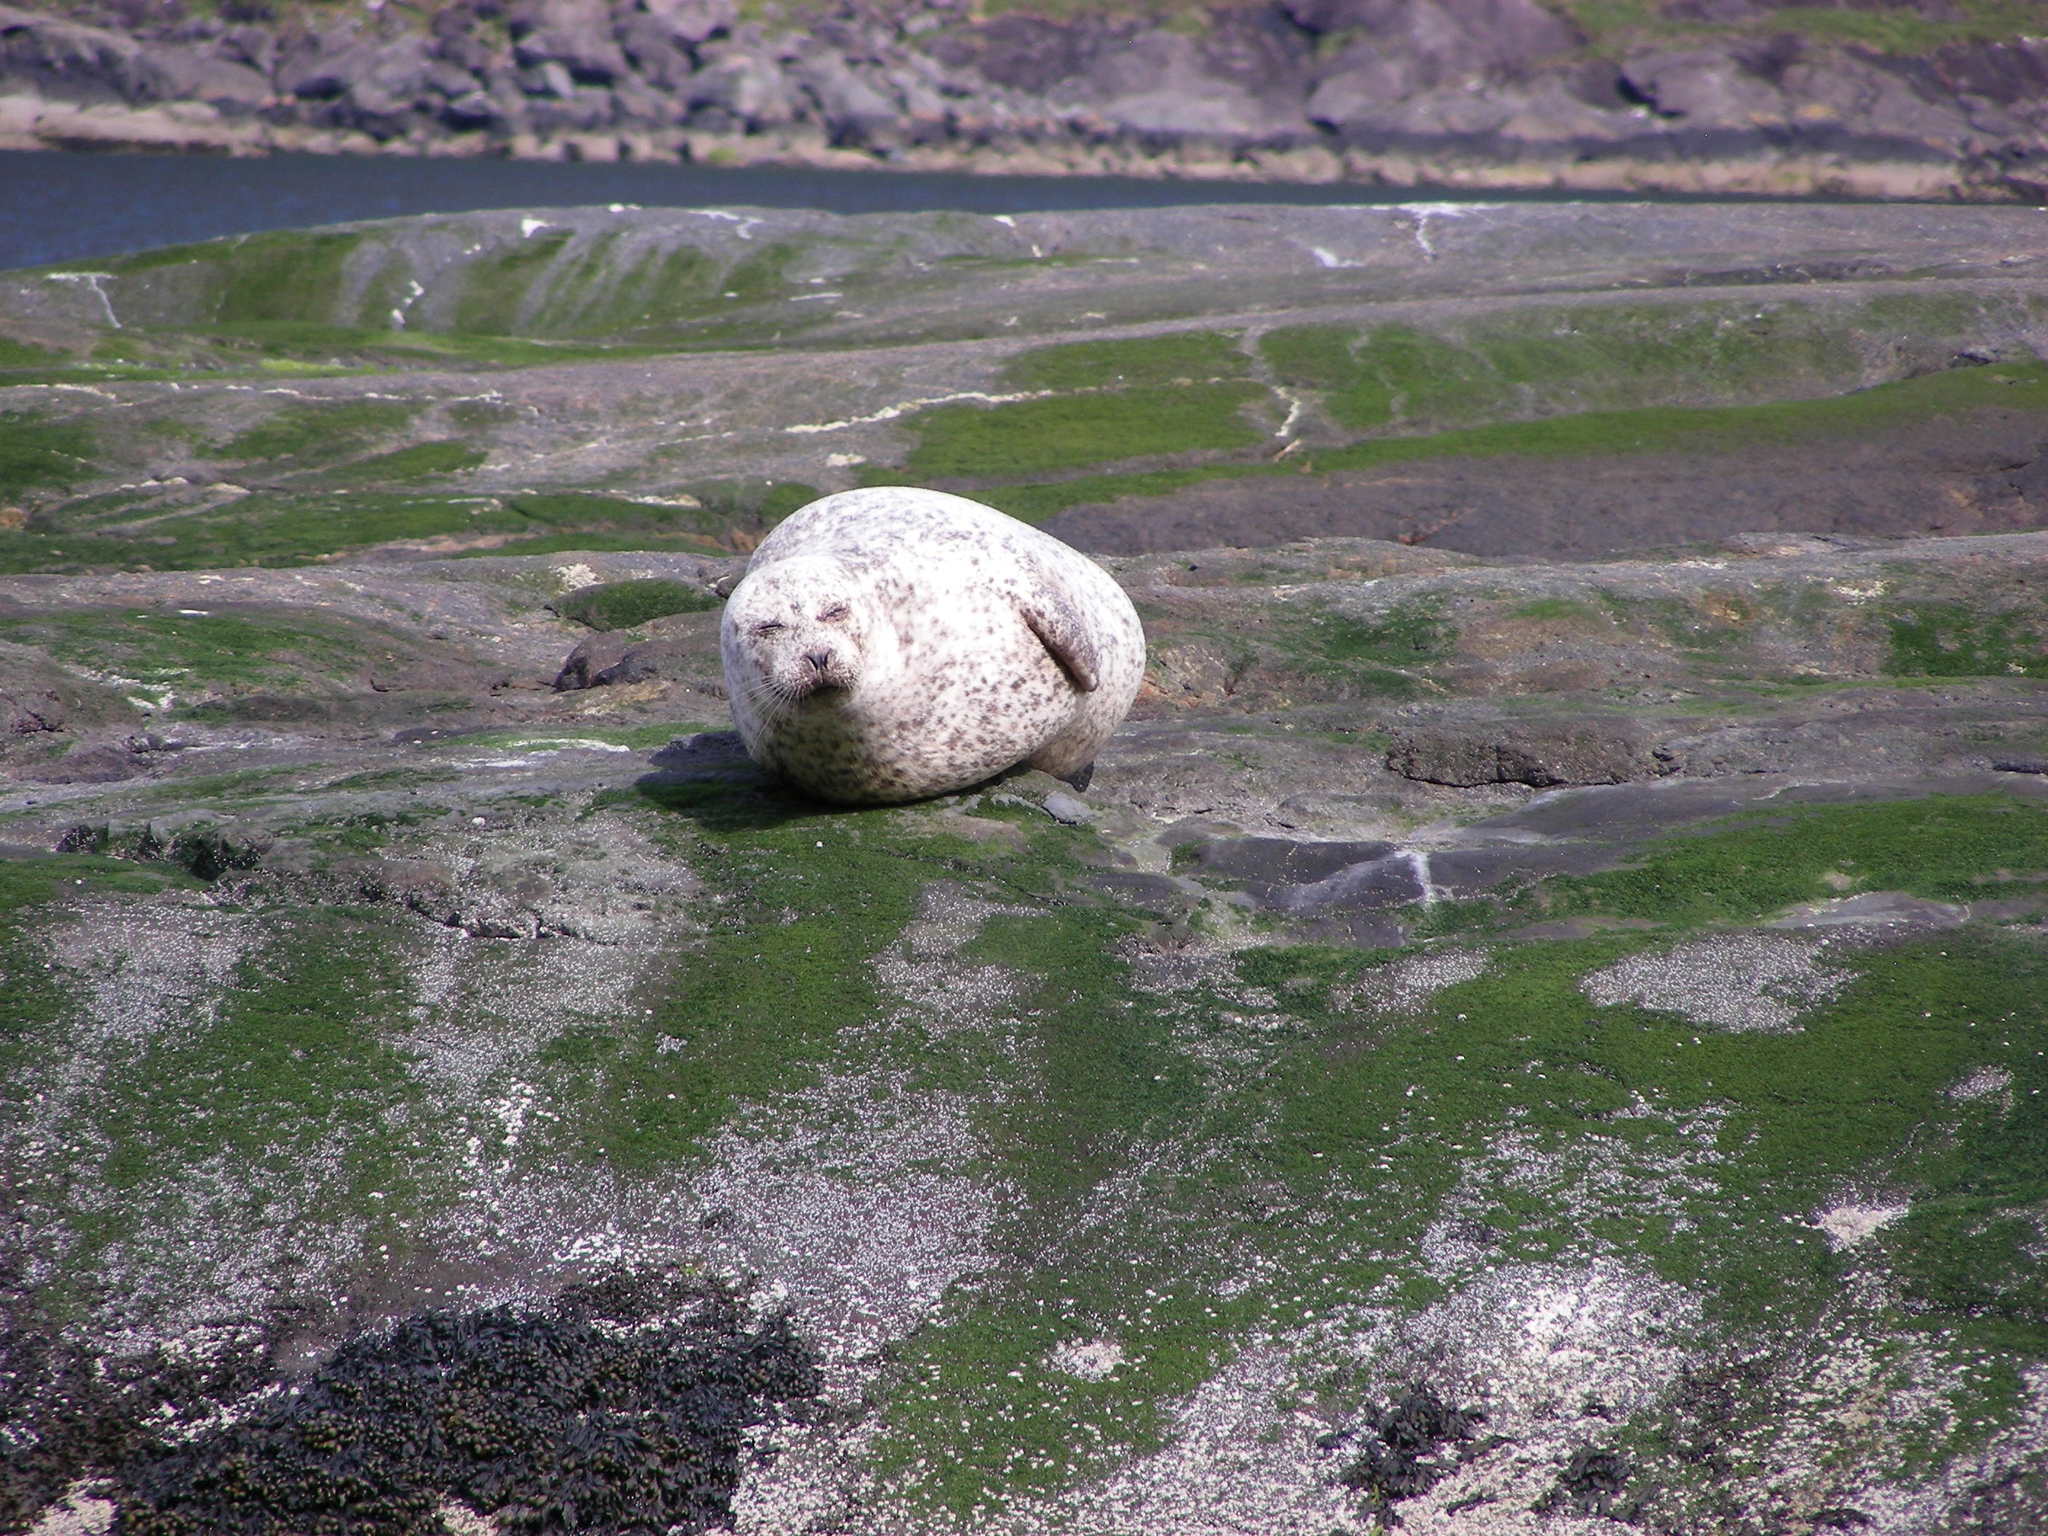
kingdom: Animalia
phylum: Chordata
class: Mammalia
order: Carnivora
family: Phocidae
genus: Phoca
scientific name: Phoca vitulina
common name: Harbor seal
